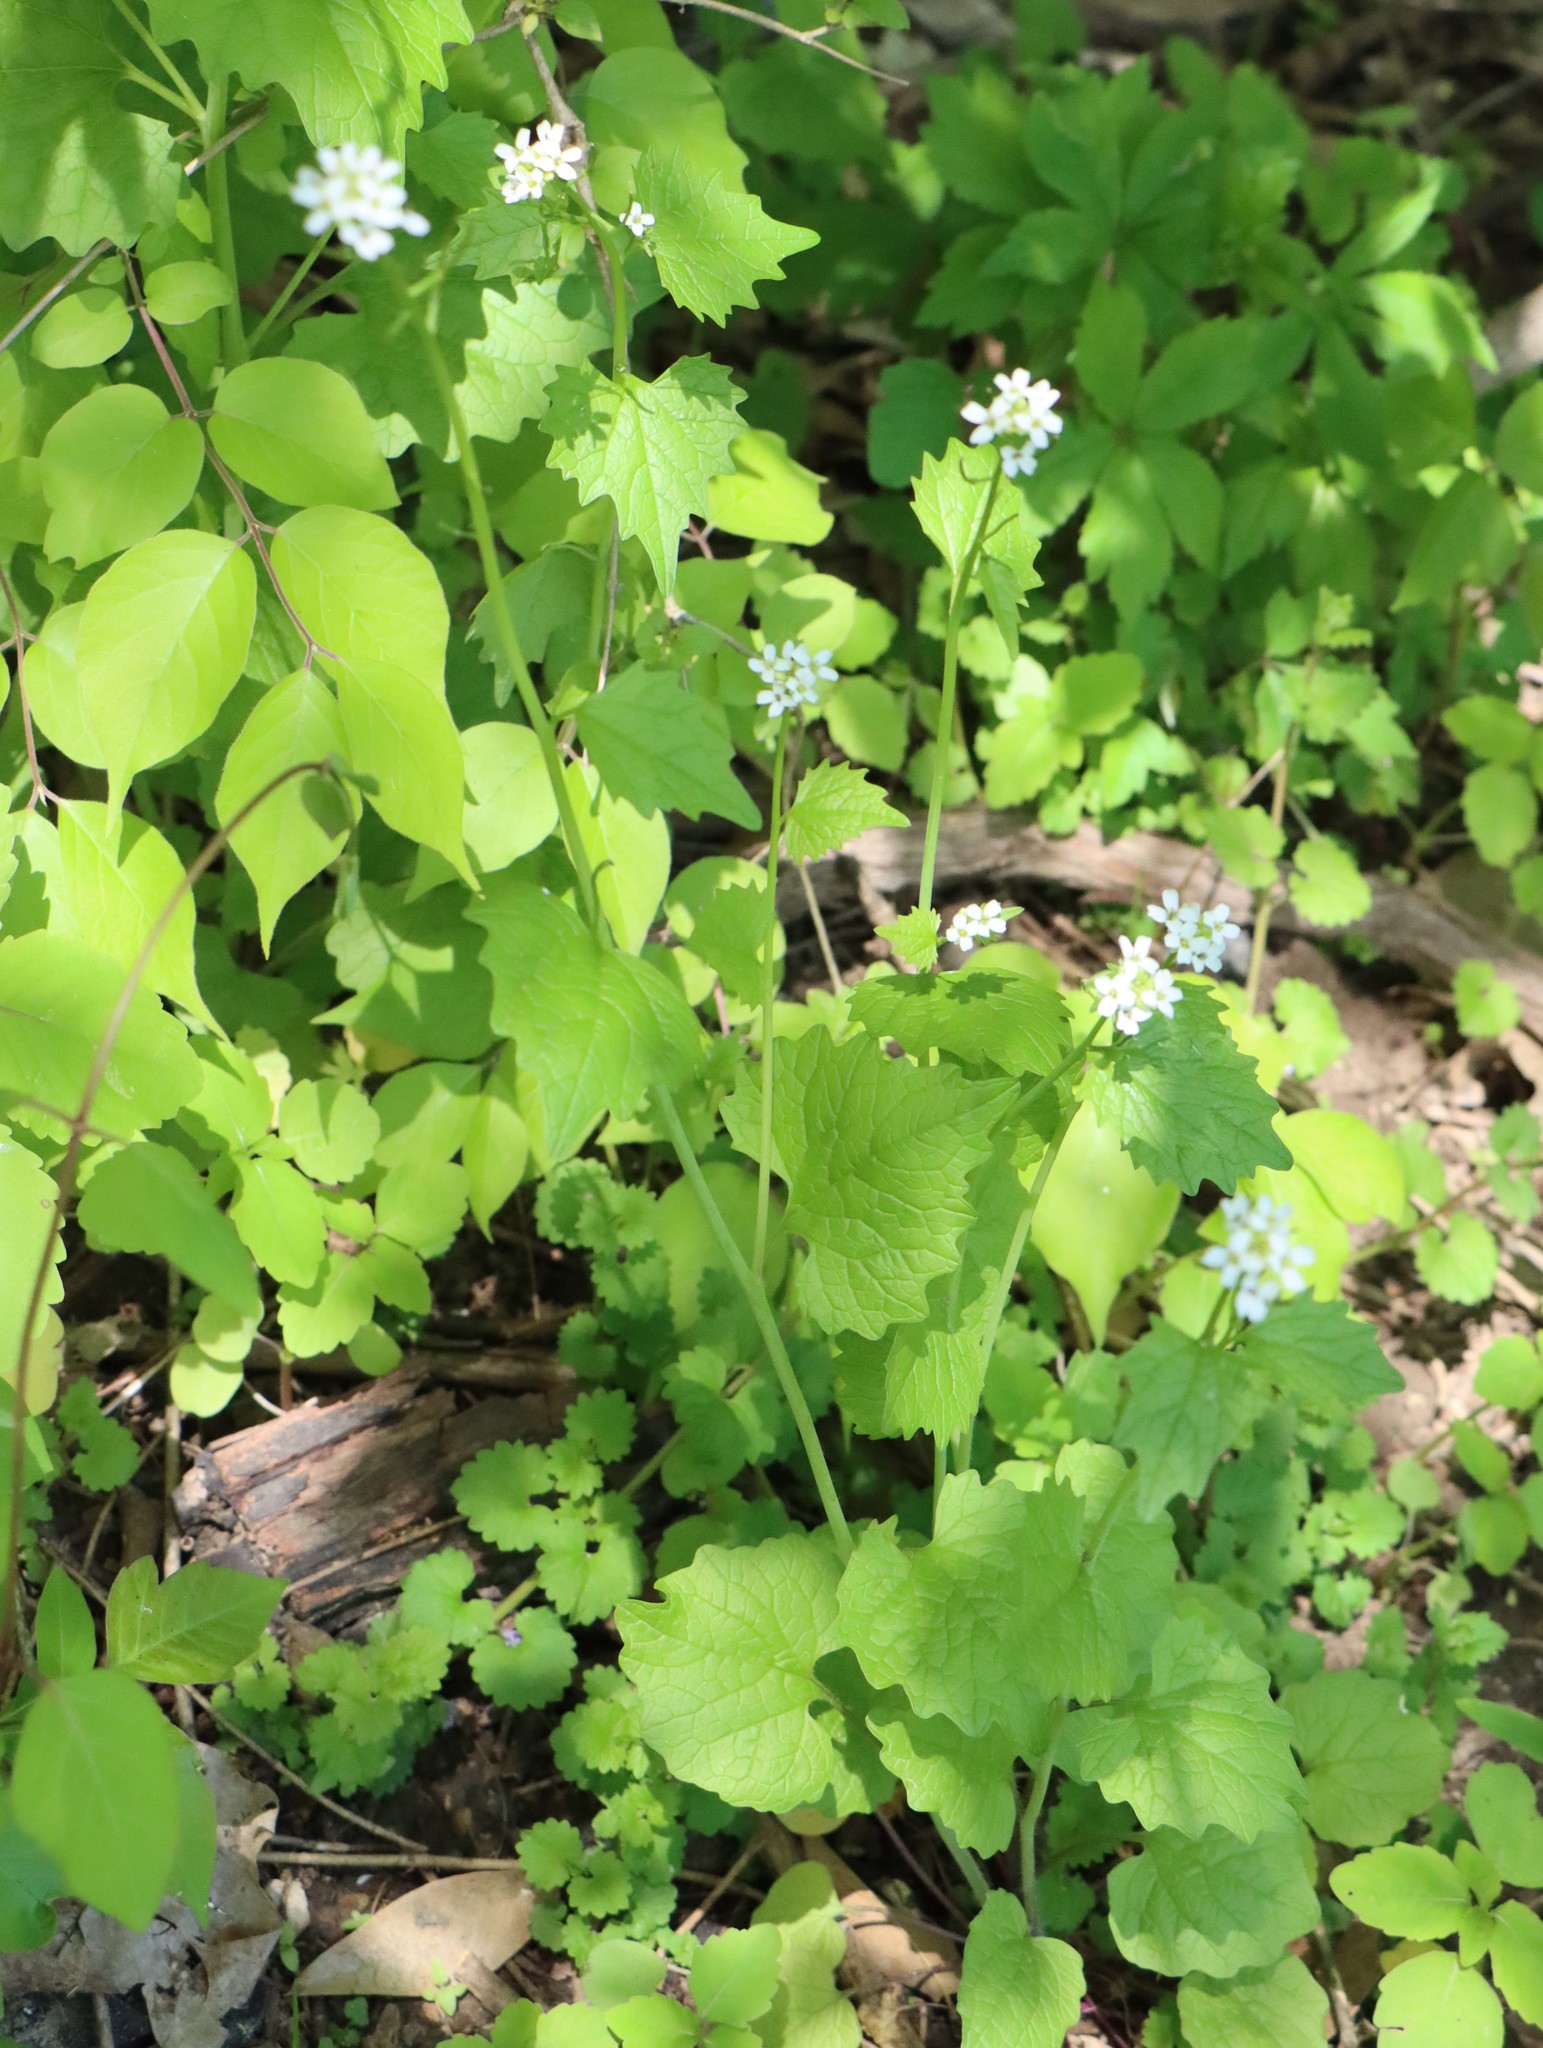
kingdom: Plantae
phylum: Tracheophyta
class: Magnoliopsida
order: Brassicales
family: Brassicaceae
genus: Alliaria
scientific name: Alliaria petiolata
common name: Garlic mustard
